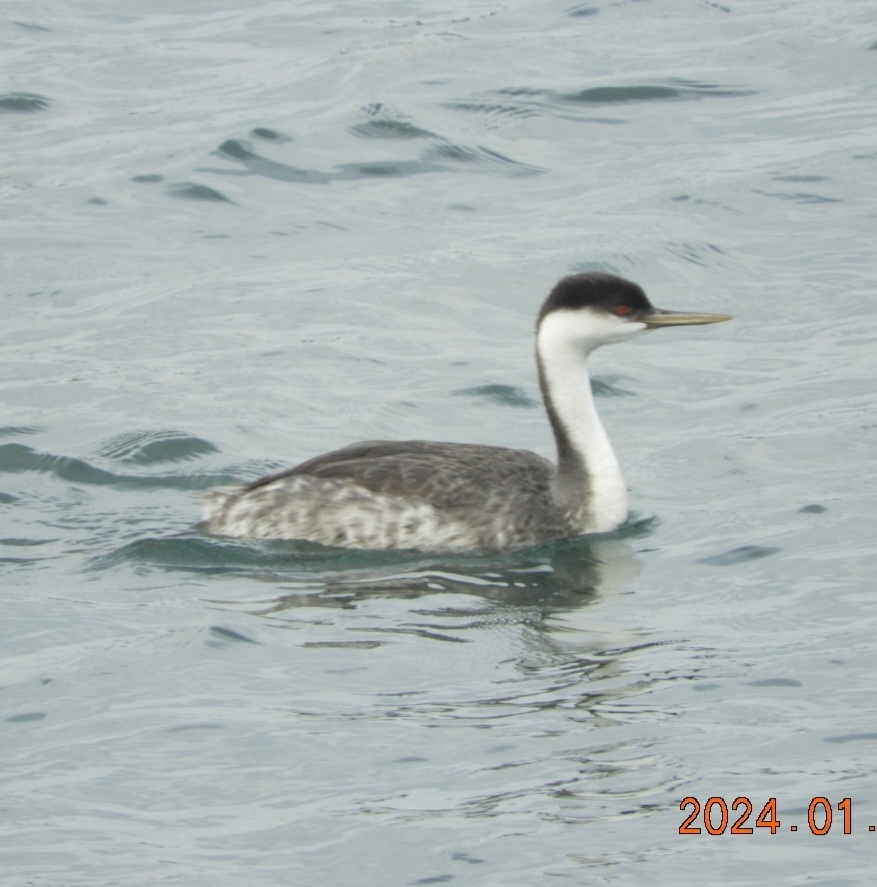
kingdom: Animalia
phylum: Chordata
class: Aves
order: Podicipediformes
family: Podicipedidae
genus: Aechmophorus
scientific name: Aechmophorus occidentalis
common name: Western grebe
